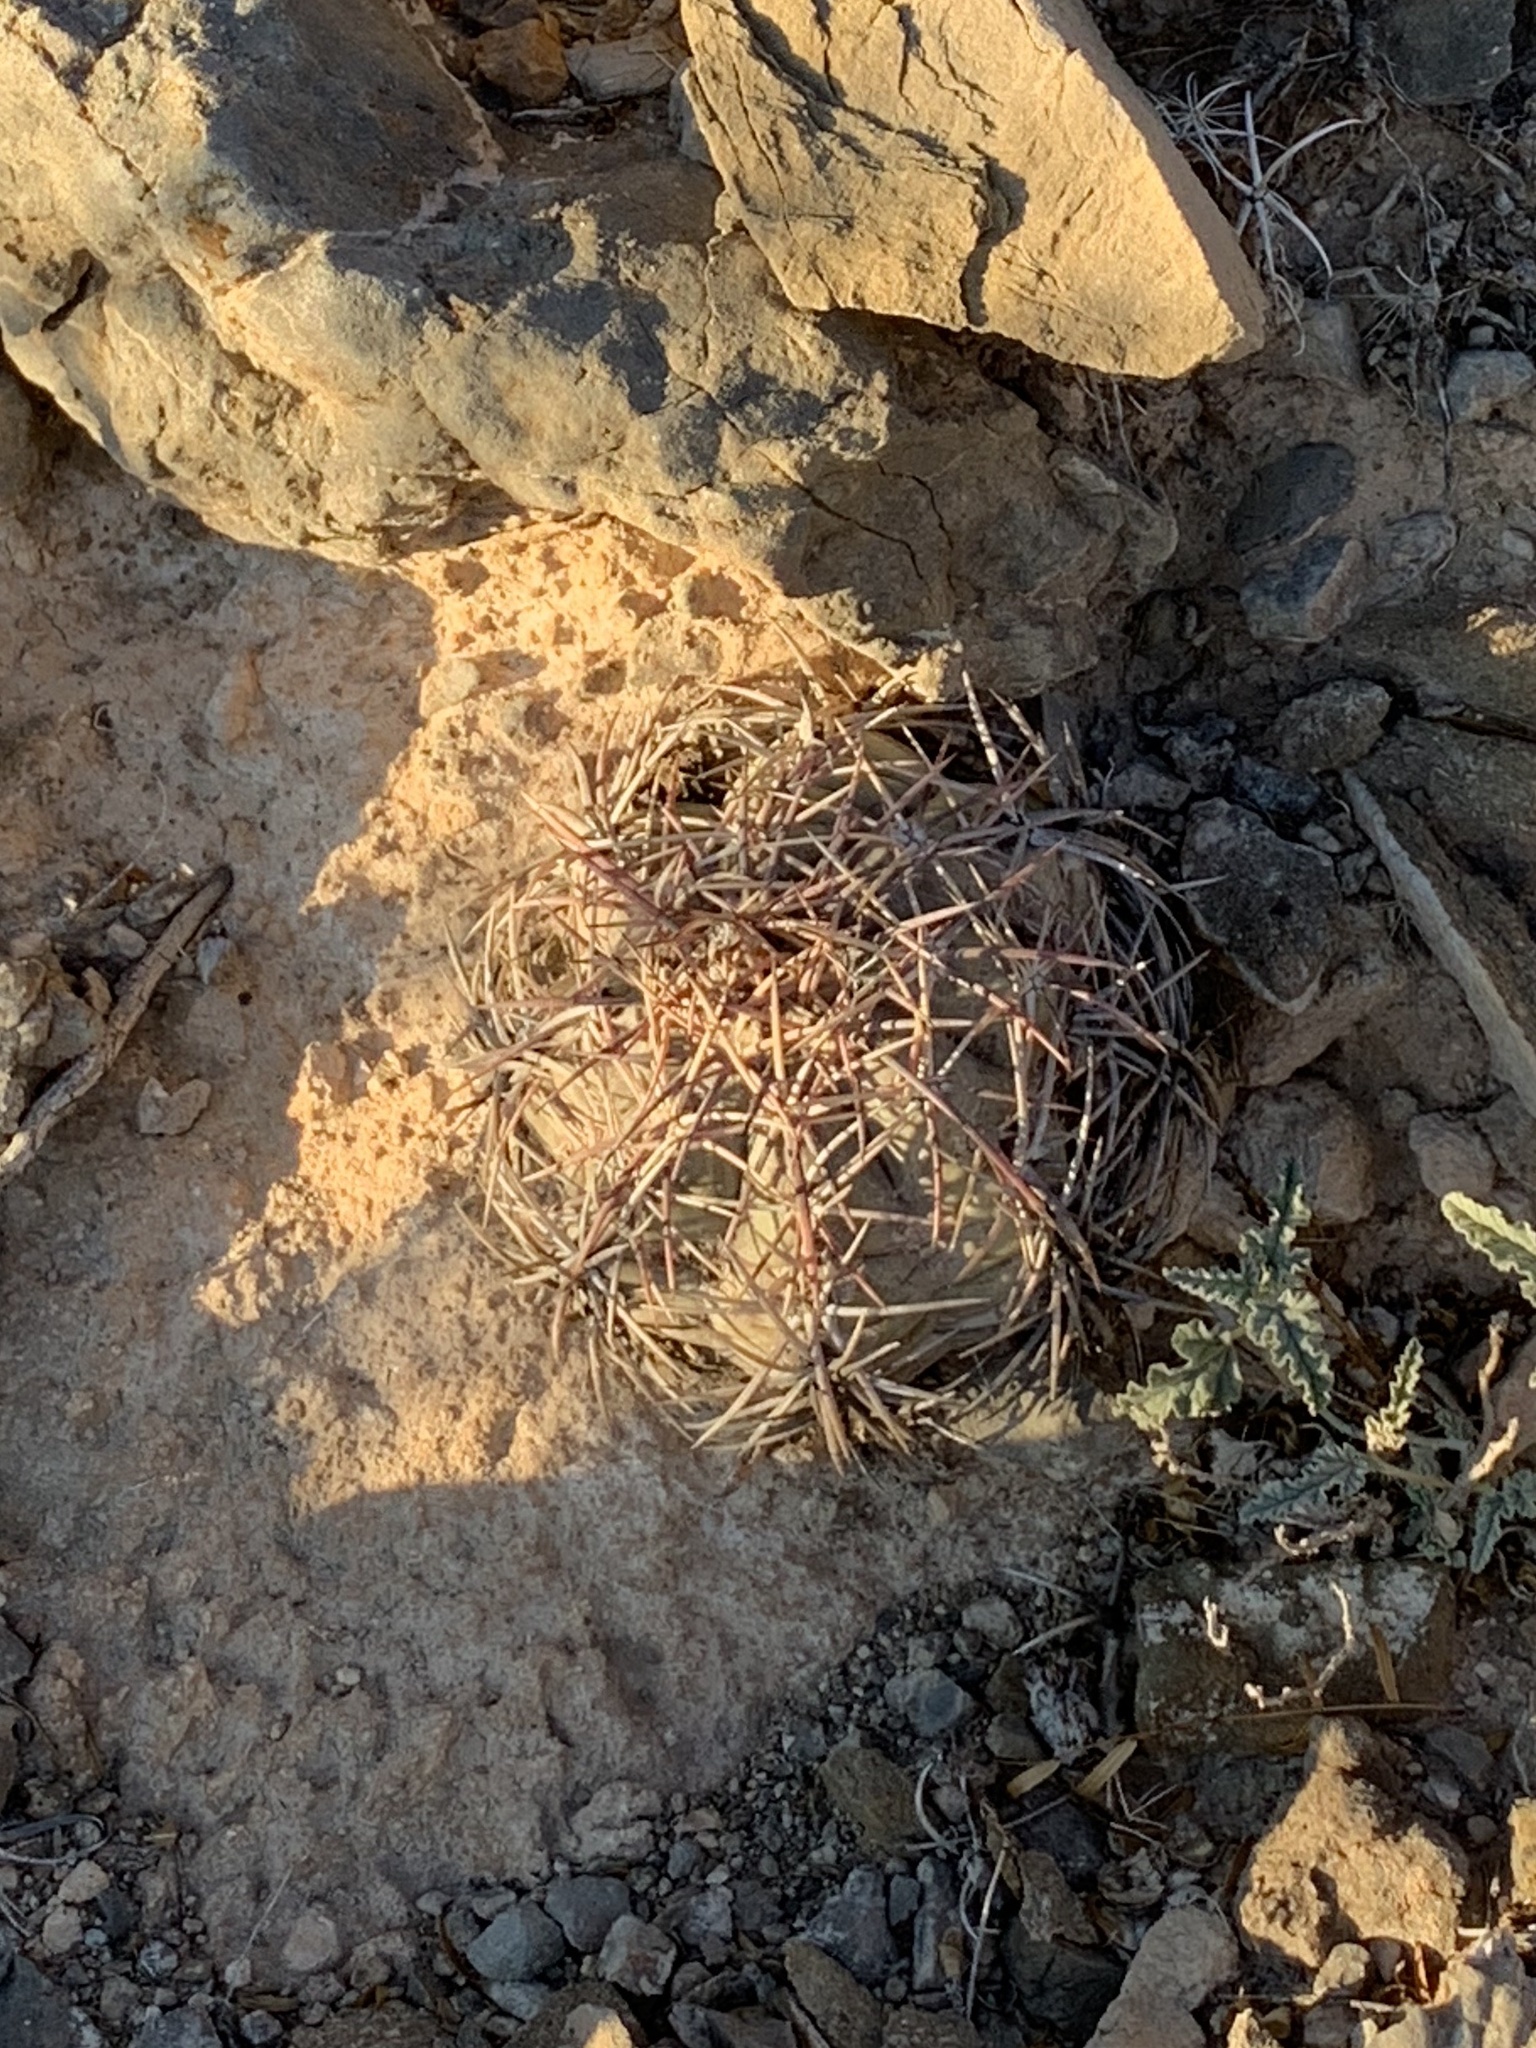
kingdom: Plantae
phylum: Tracheophyta
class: Magnoliopsida
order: Caryophyllales
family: Cactaceae
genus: Echinocactus
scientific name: Echinocactus horizonthalonius
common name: Devilshead
